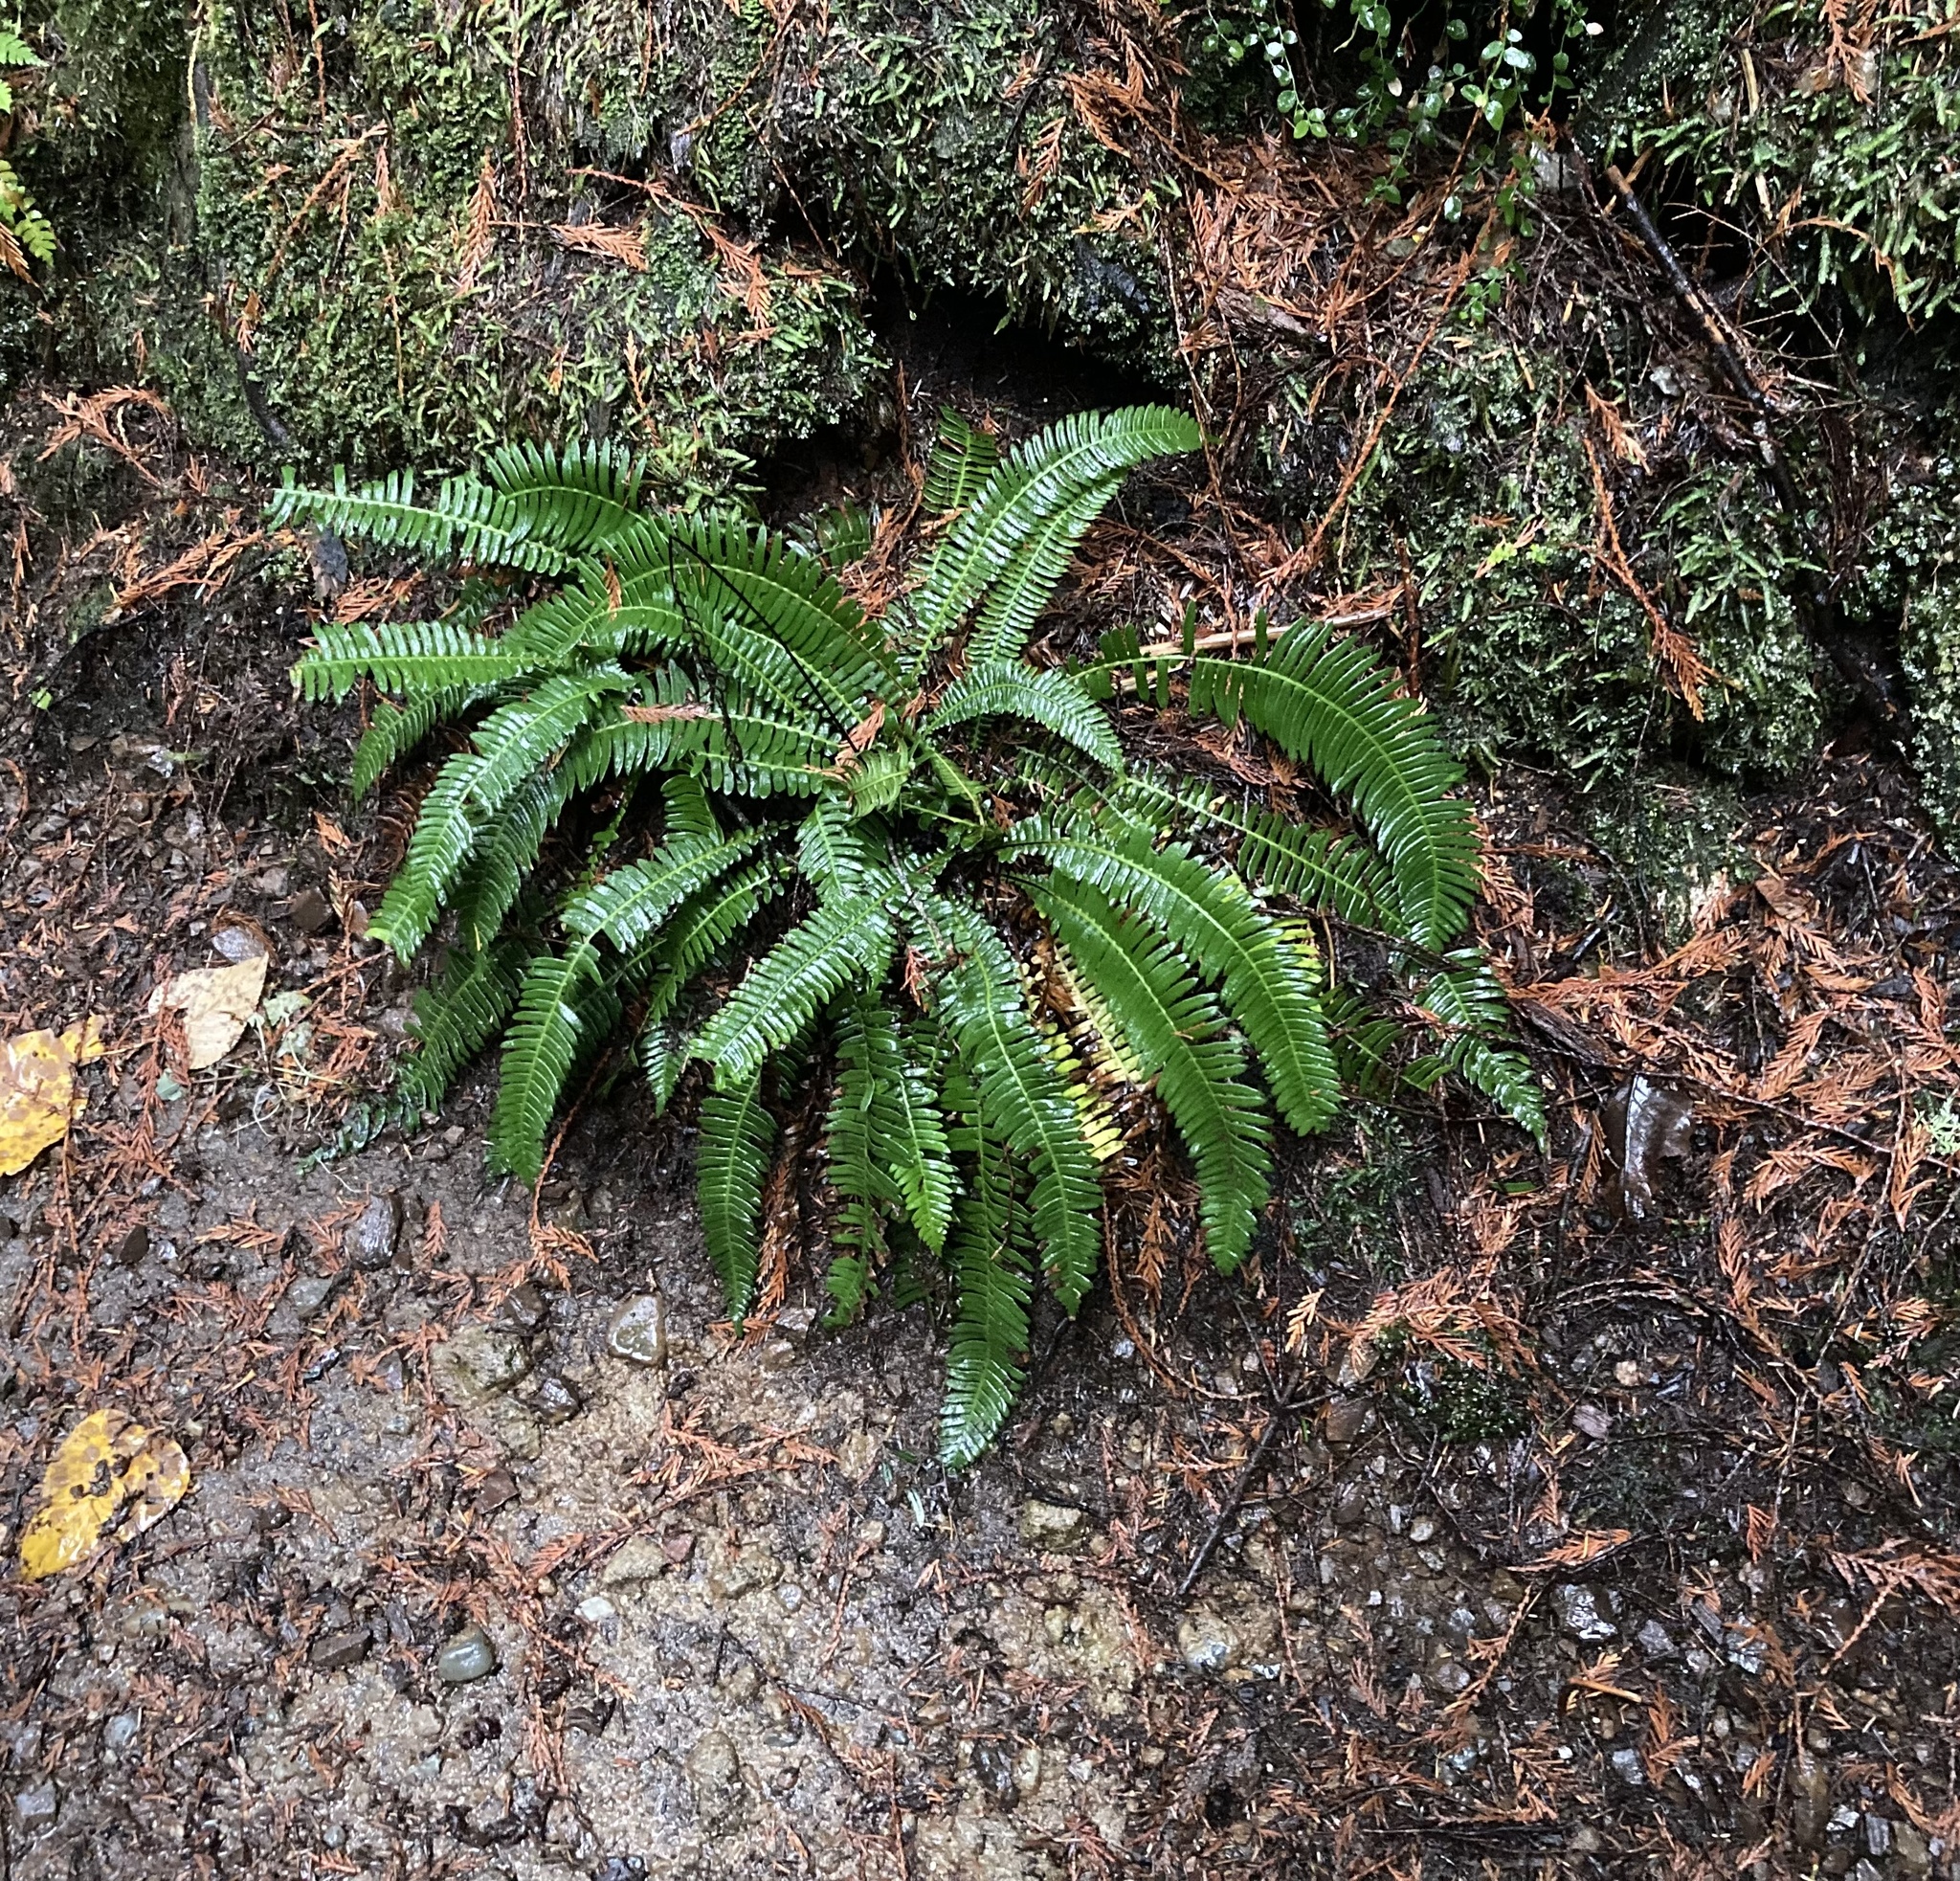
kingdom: Plantae
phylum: Tracheophyta
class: Polypodiopsida
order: Polypodiales
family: Blechnaceae
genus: Struthiopteris
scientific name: Struthiopteris spicant
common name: Deer fern
